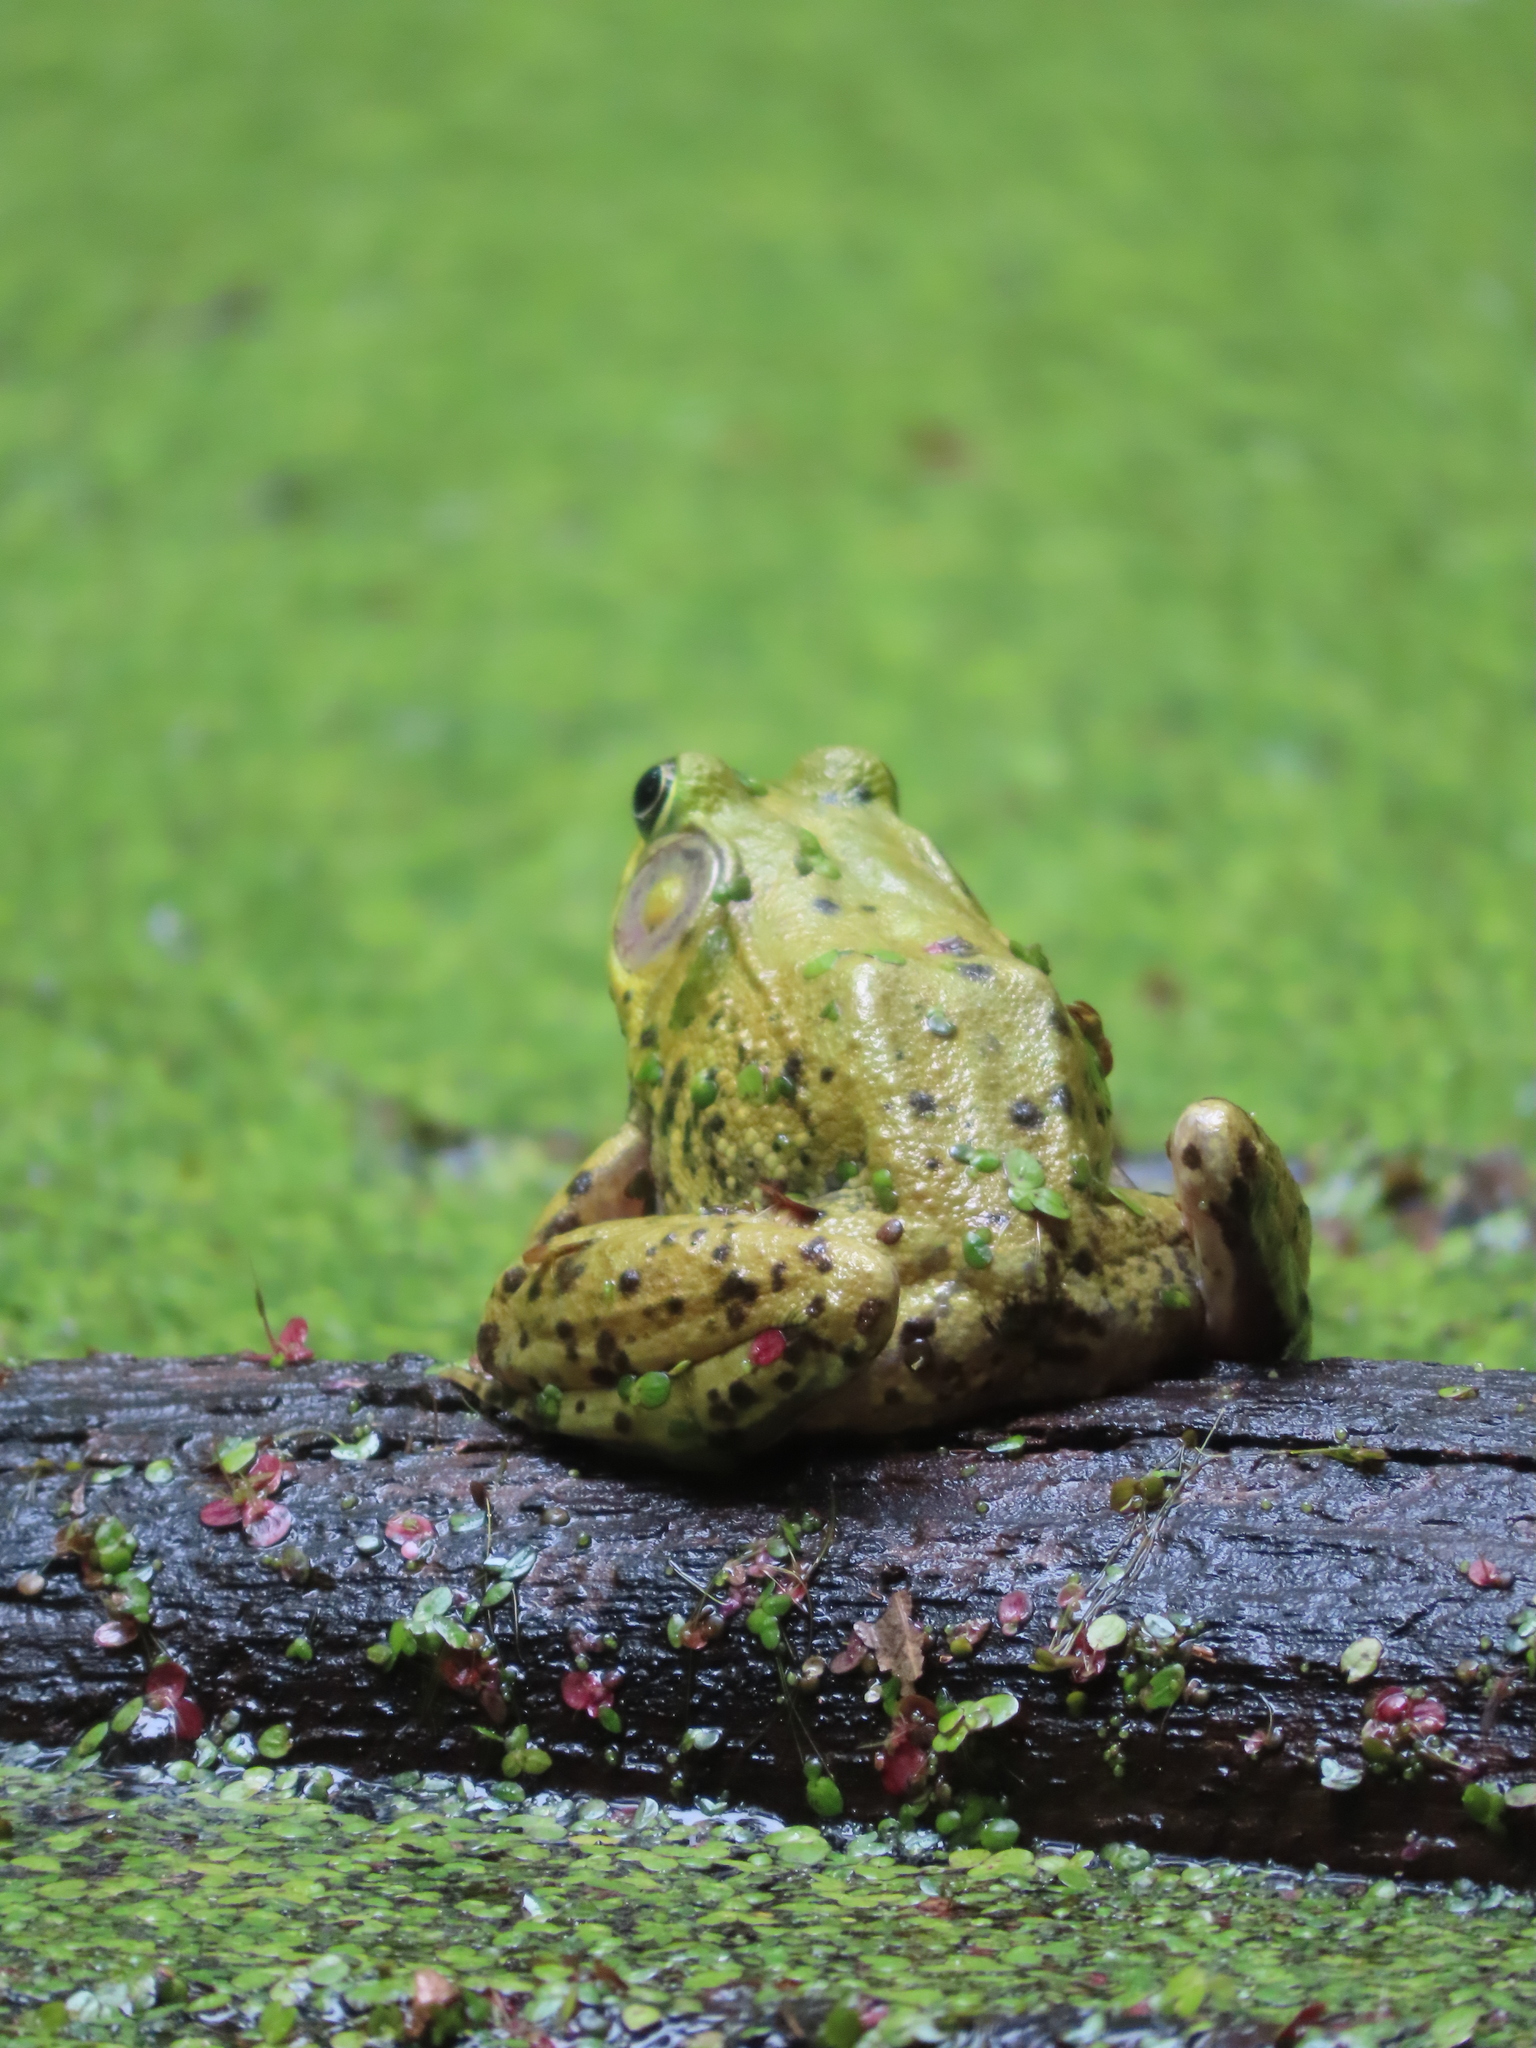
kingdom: Animalia
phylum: Chordata
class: Amphibia
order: Anura
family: Ranidae
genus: Lithobates
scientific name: Lithobates clamitans
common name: Green frog
